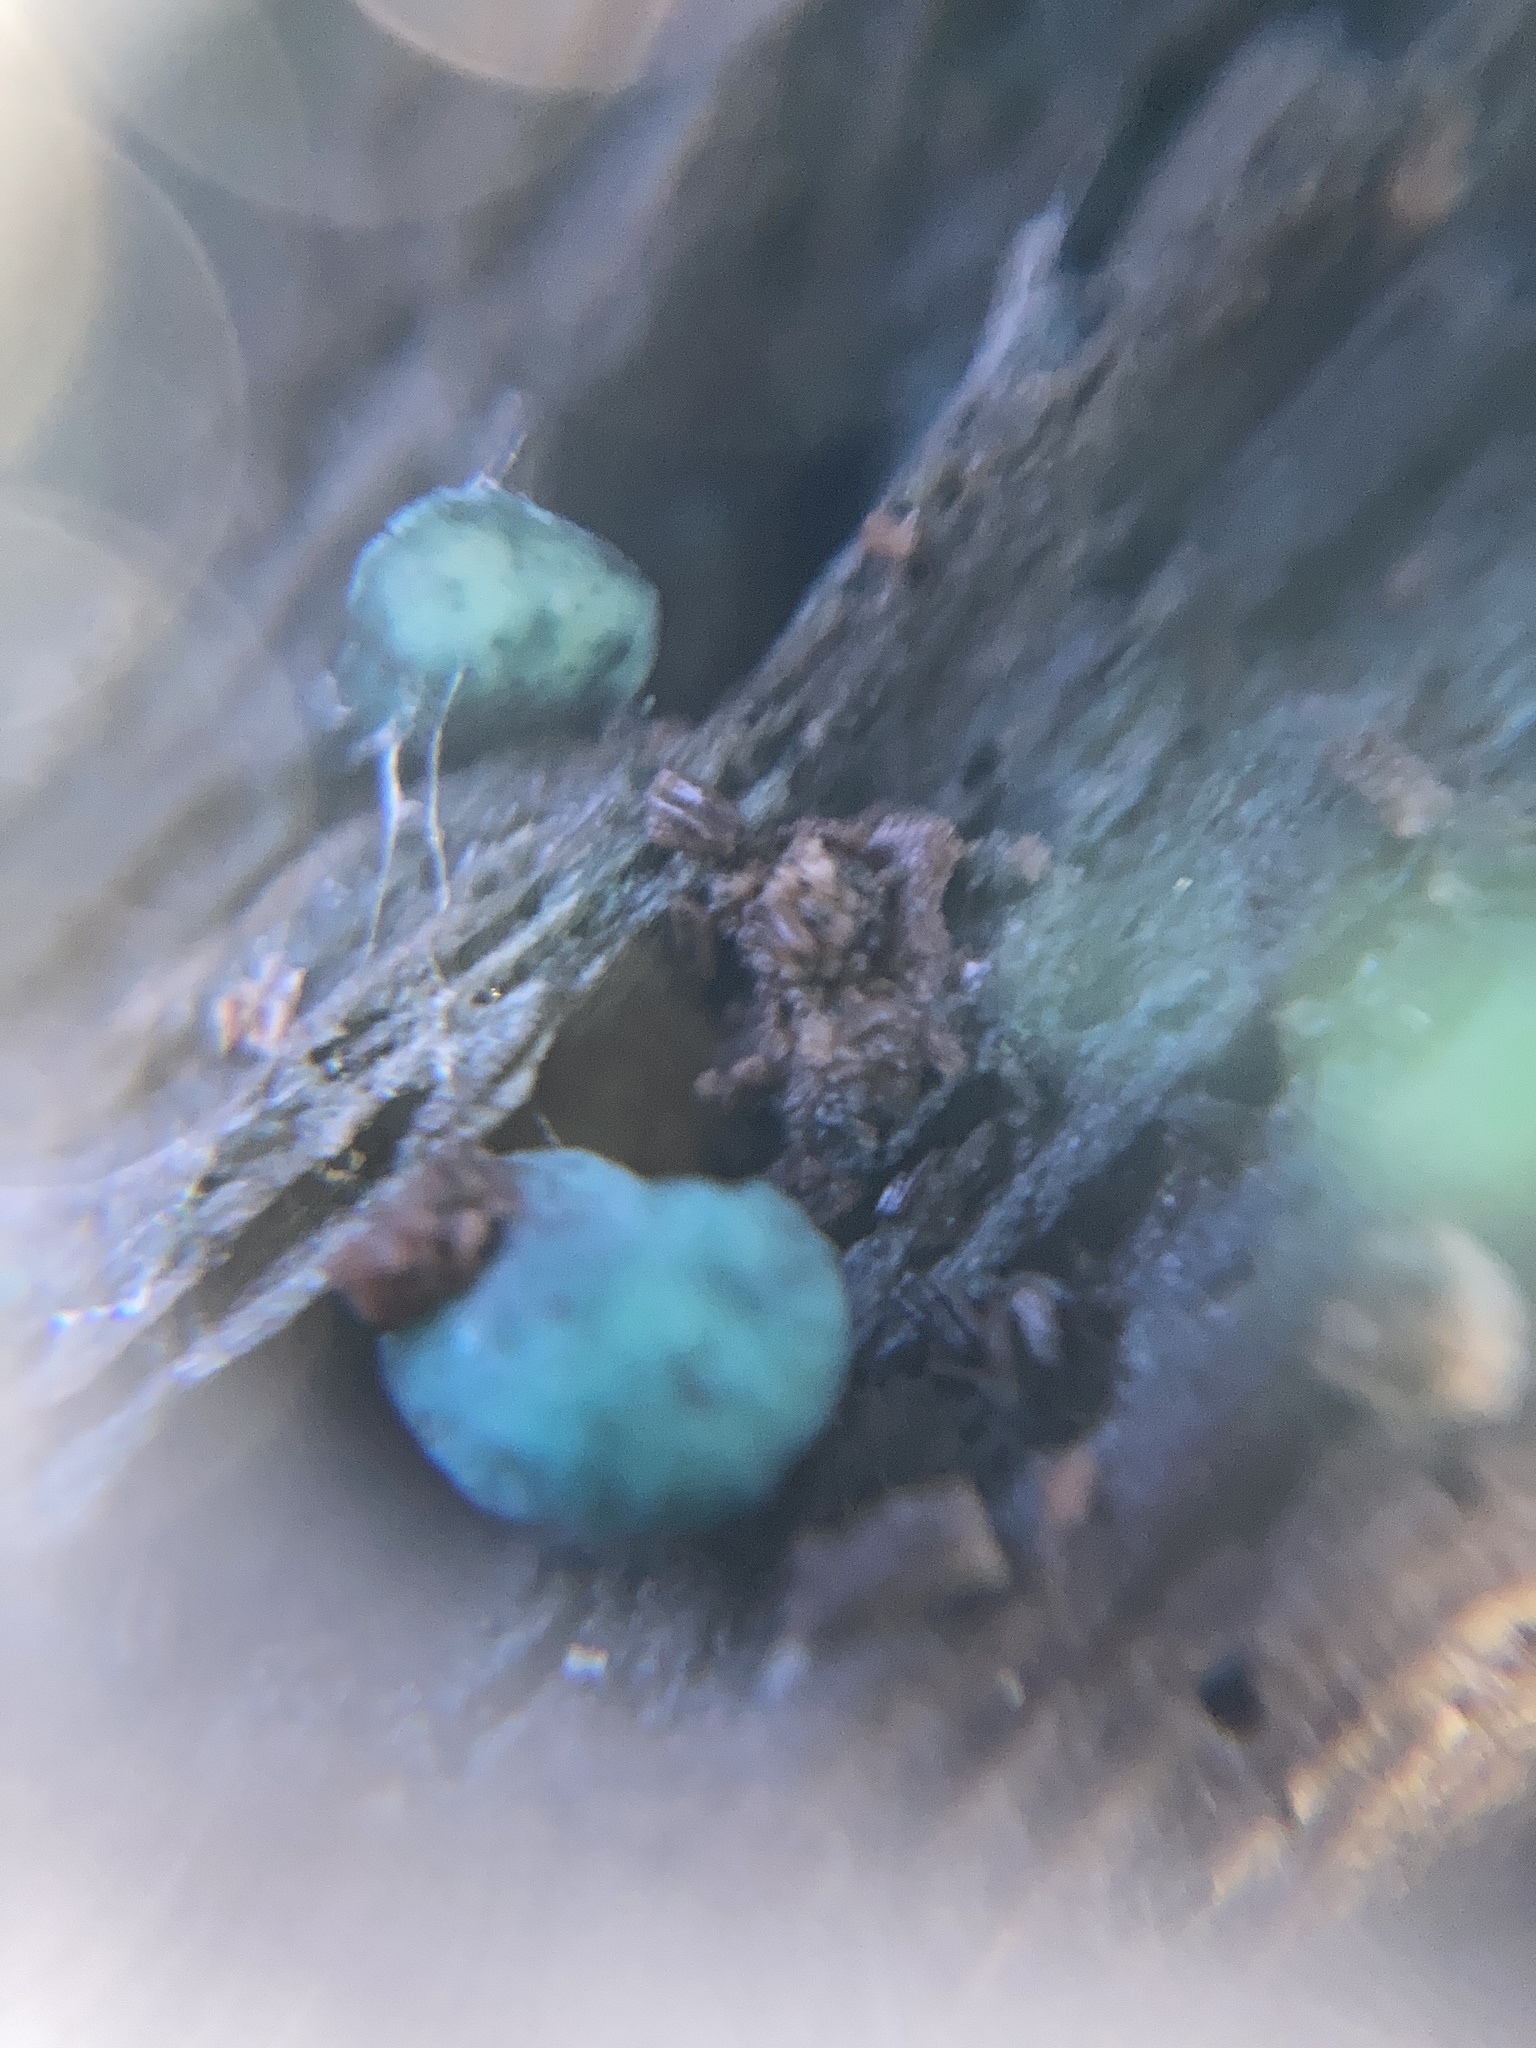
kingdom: Fungi
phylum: Ascomycota
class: Leotiomycetes
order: Helotiales
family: Chlorociboriaceae
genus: Chlorociboria
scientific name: Chlorociboria aeruginascens
